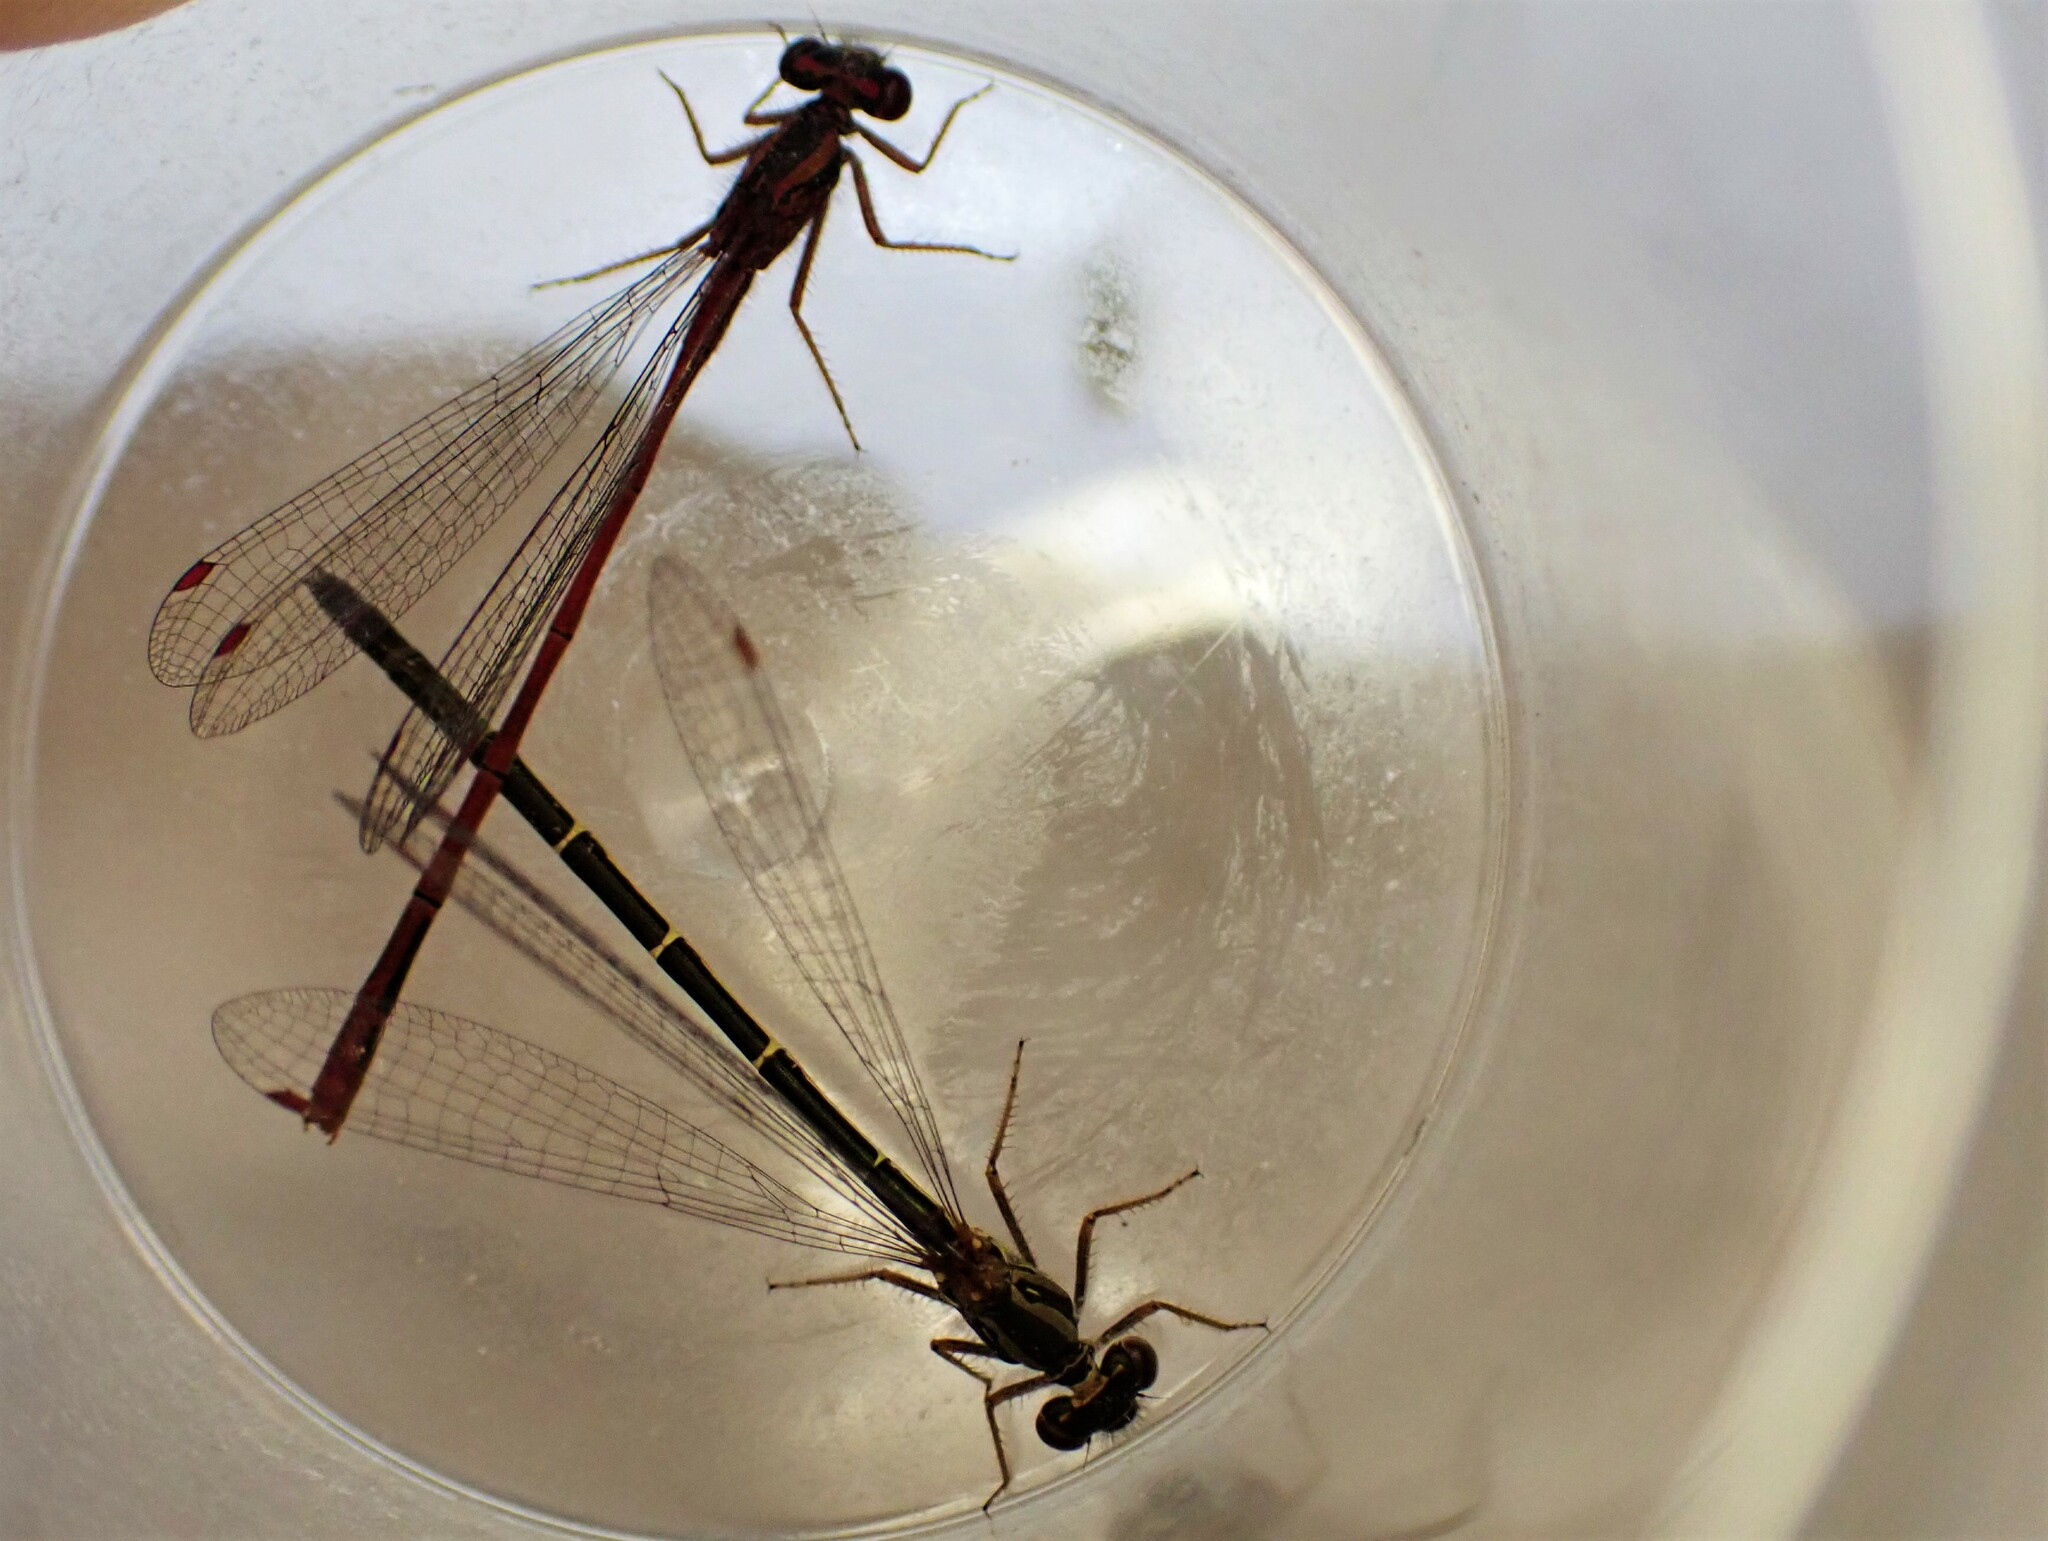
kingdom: Animalia
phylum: Arthropoda
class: Insecta
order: Odonata
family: Coenagrionidae
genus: Xanthocnemis
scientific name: Xanthocnemis zealandica
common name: Common redcoat damselfly
